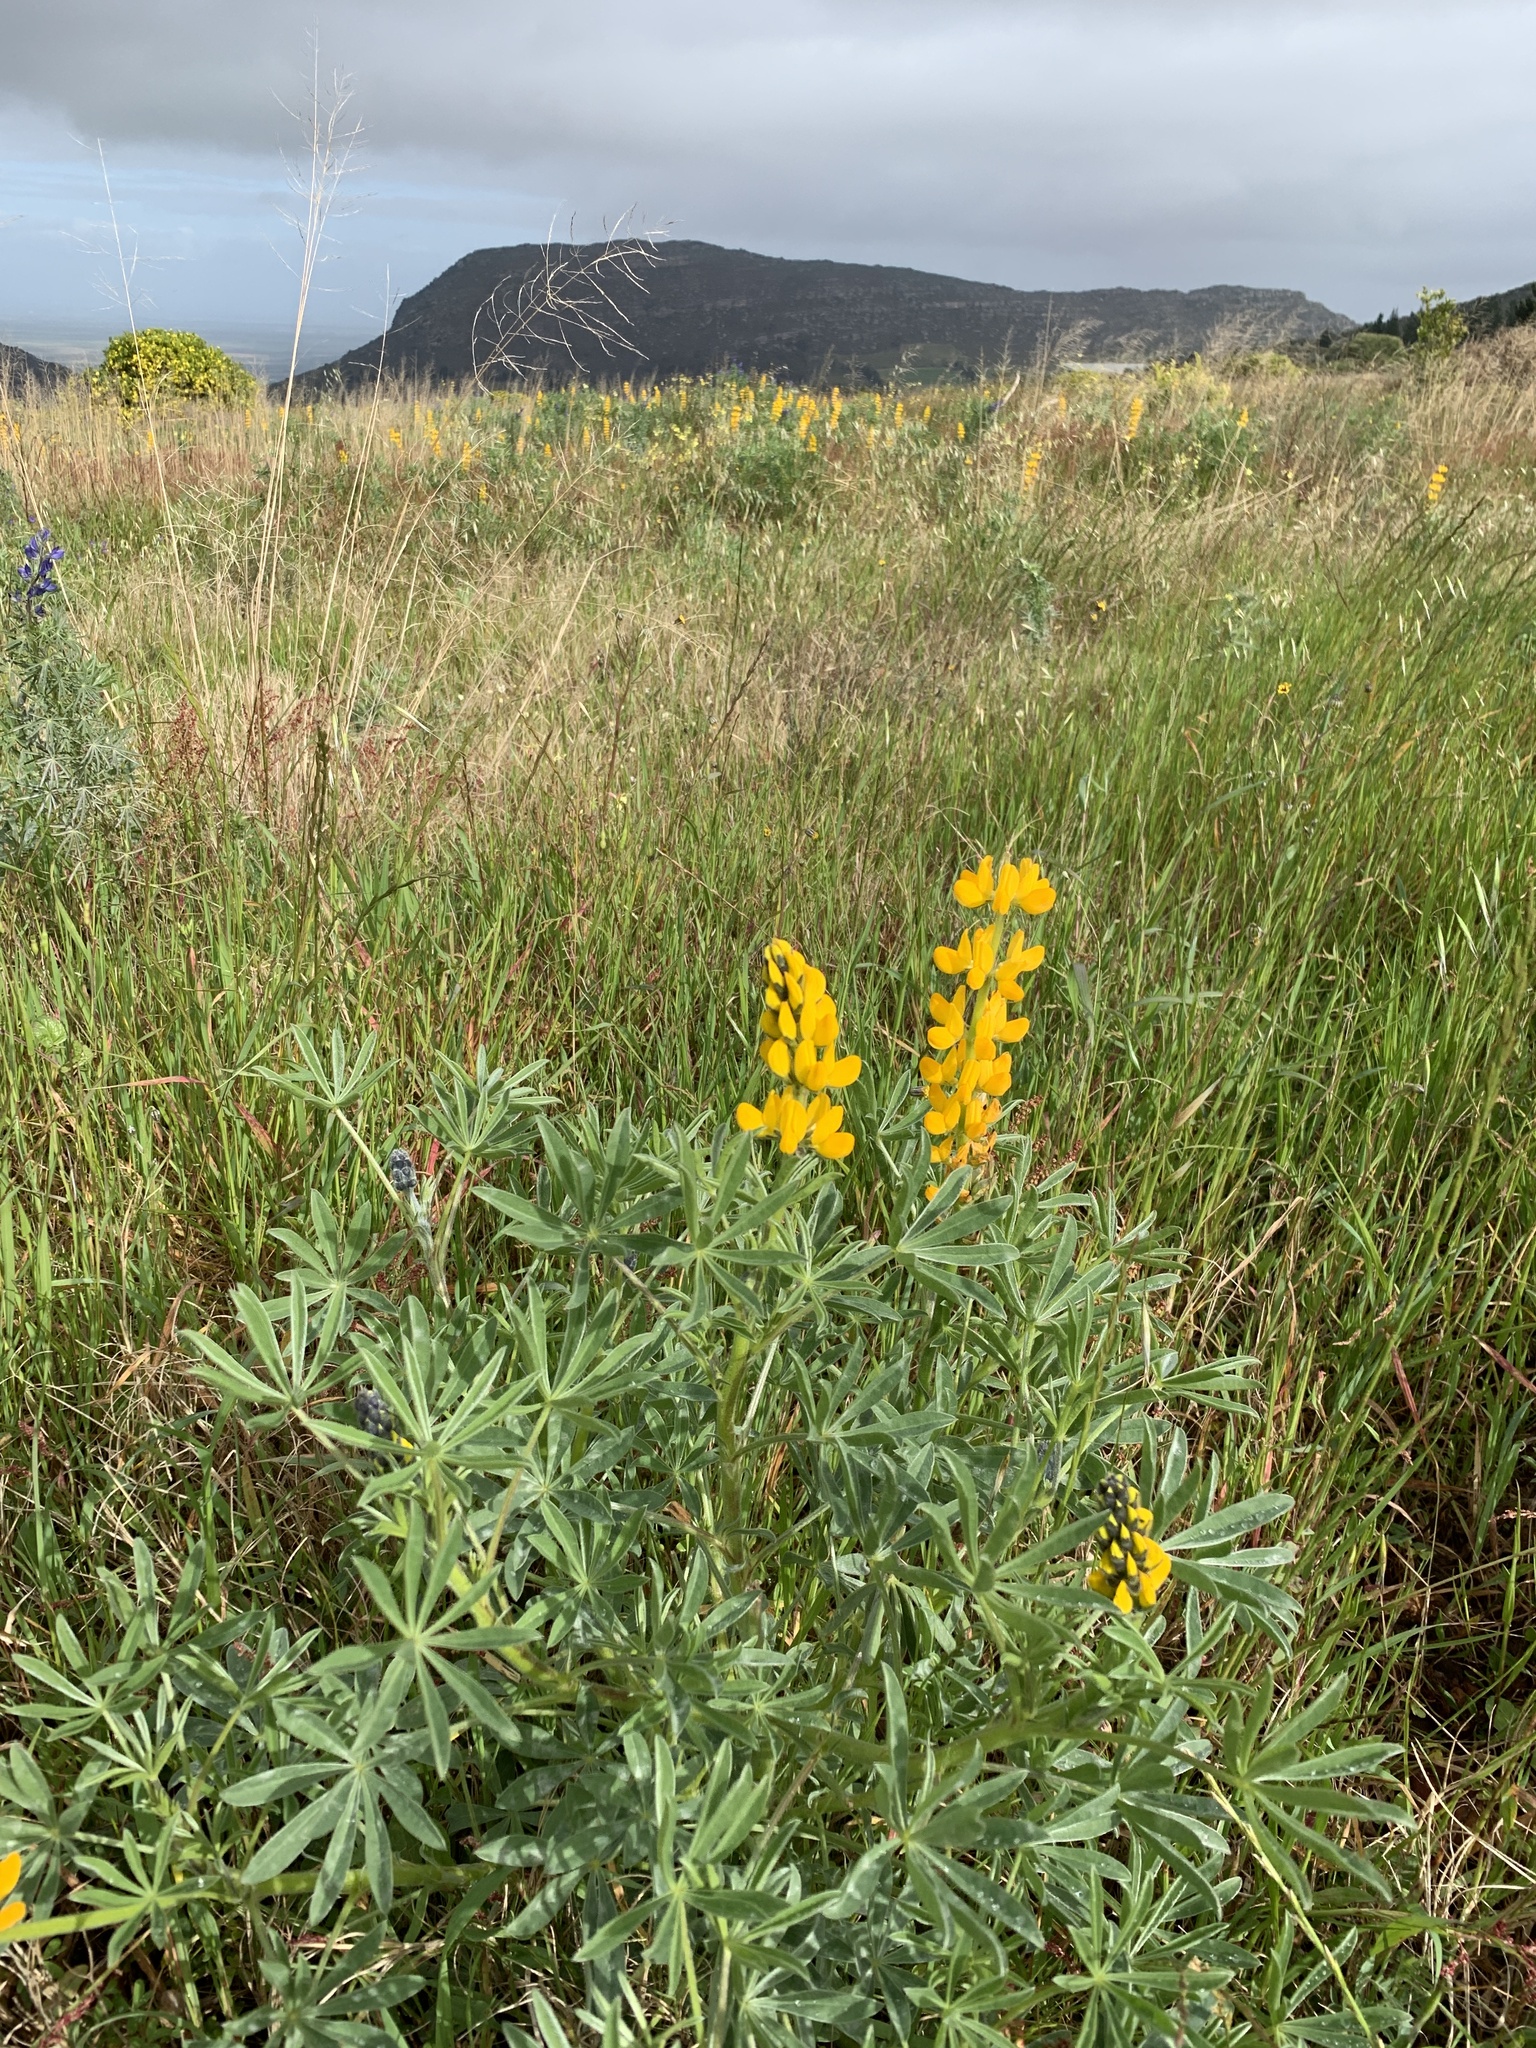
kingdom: Plantae
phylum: Tracheophyta
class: Magnoliopsida
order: Fabales
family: Fabaceae
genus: Lupinus
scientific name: Lupinus luteus
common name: European yellow lupine
